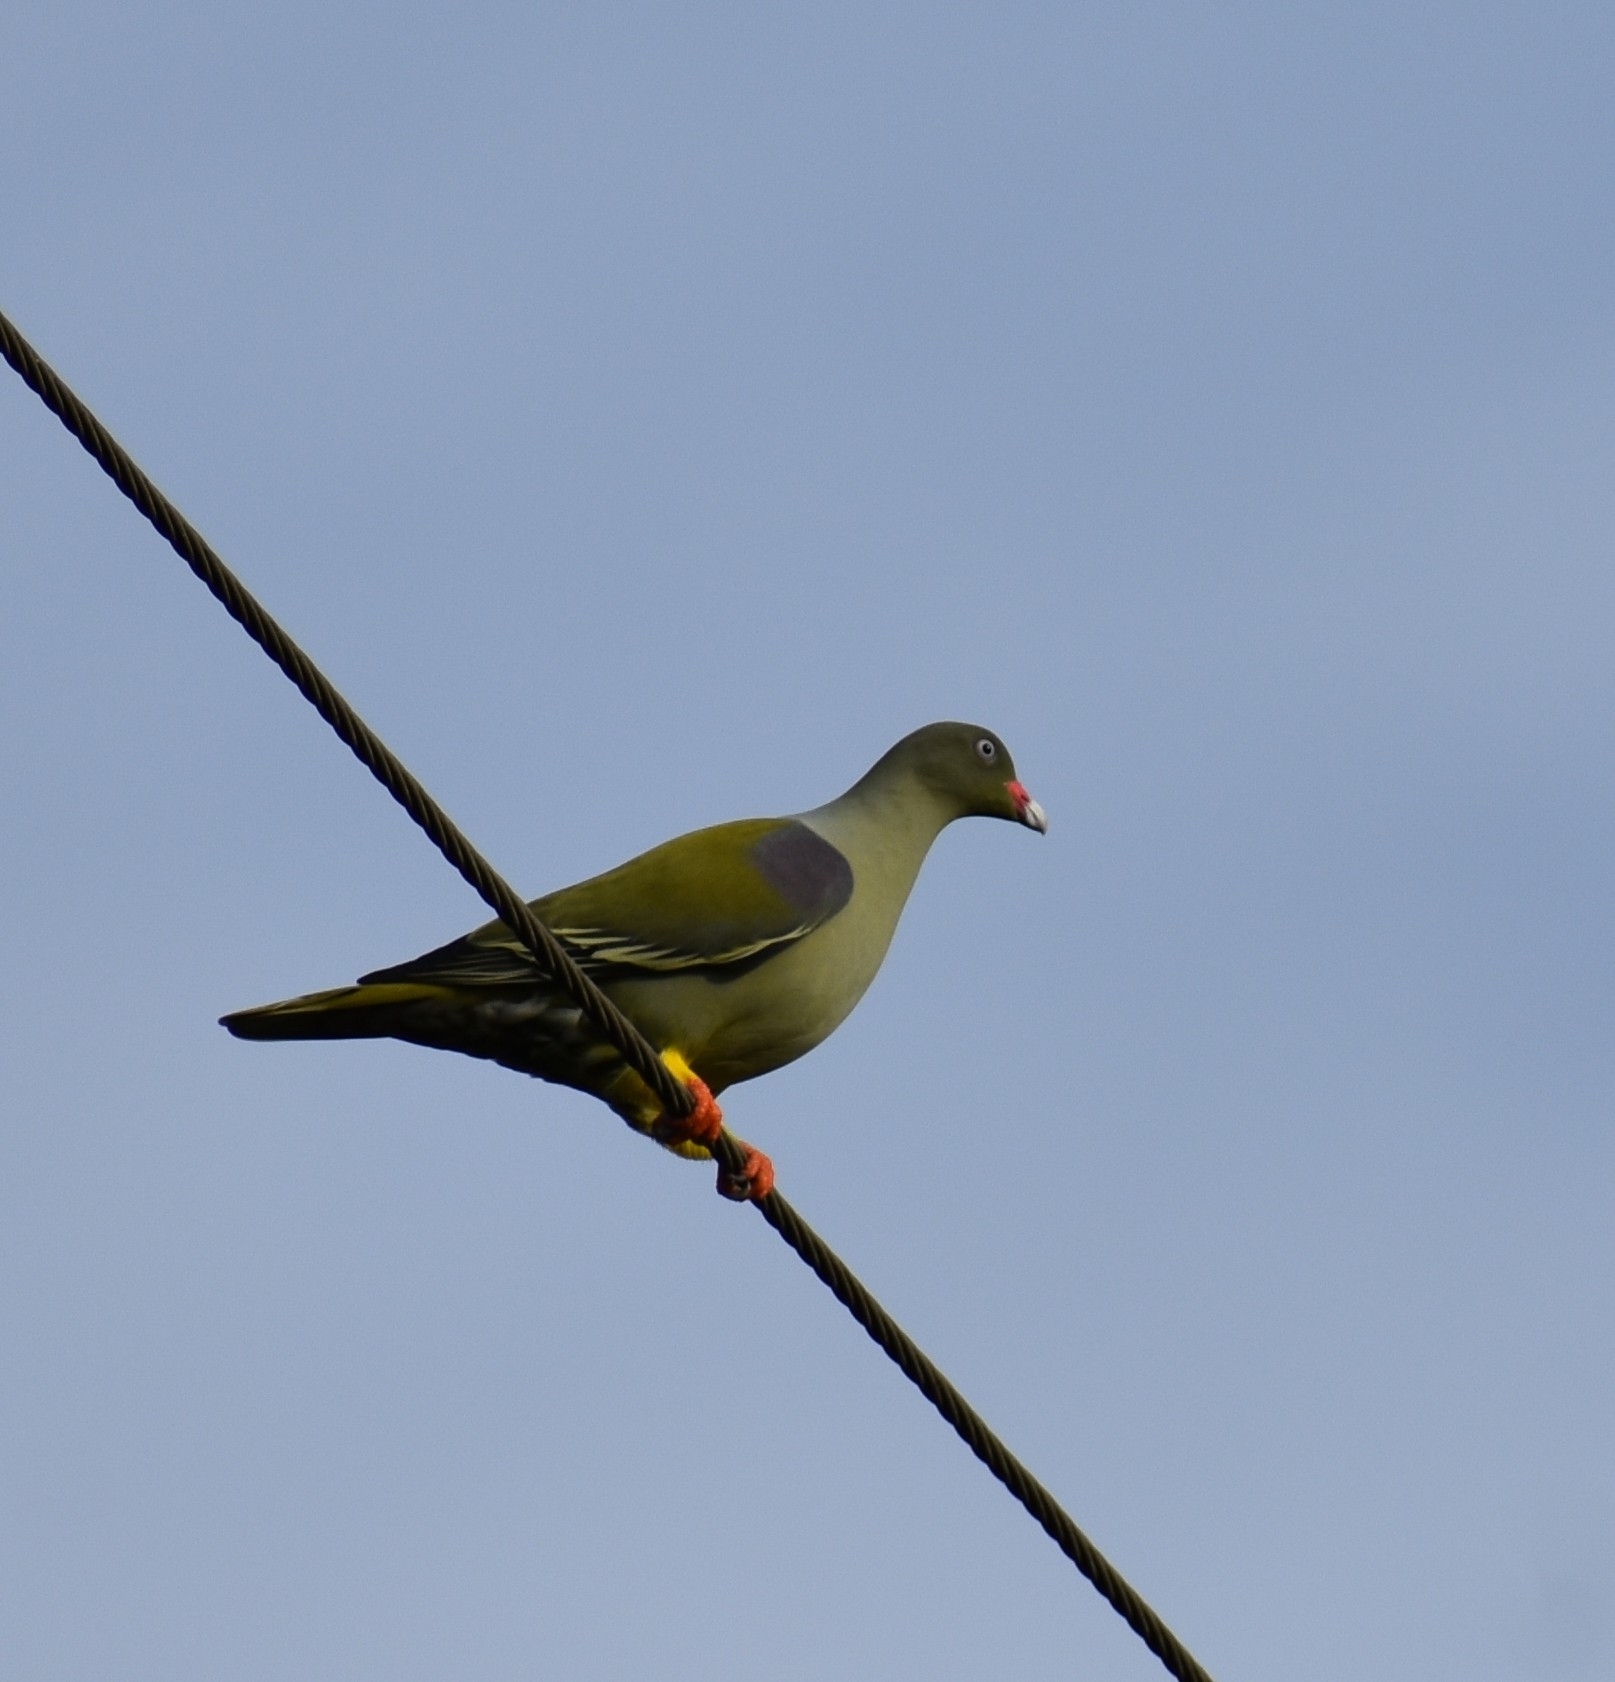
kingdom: Animalia
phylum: Chordata
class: Aves
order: Columbiformes
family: Columbidae
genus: Treron
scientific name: Treron calvus
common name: African green pigeon
